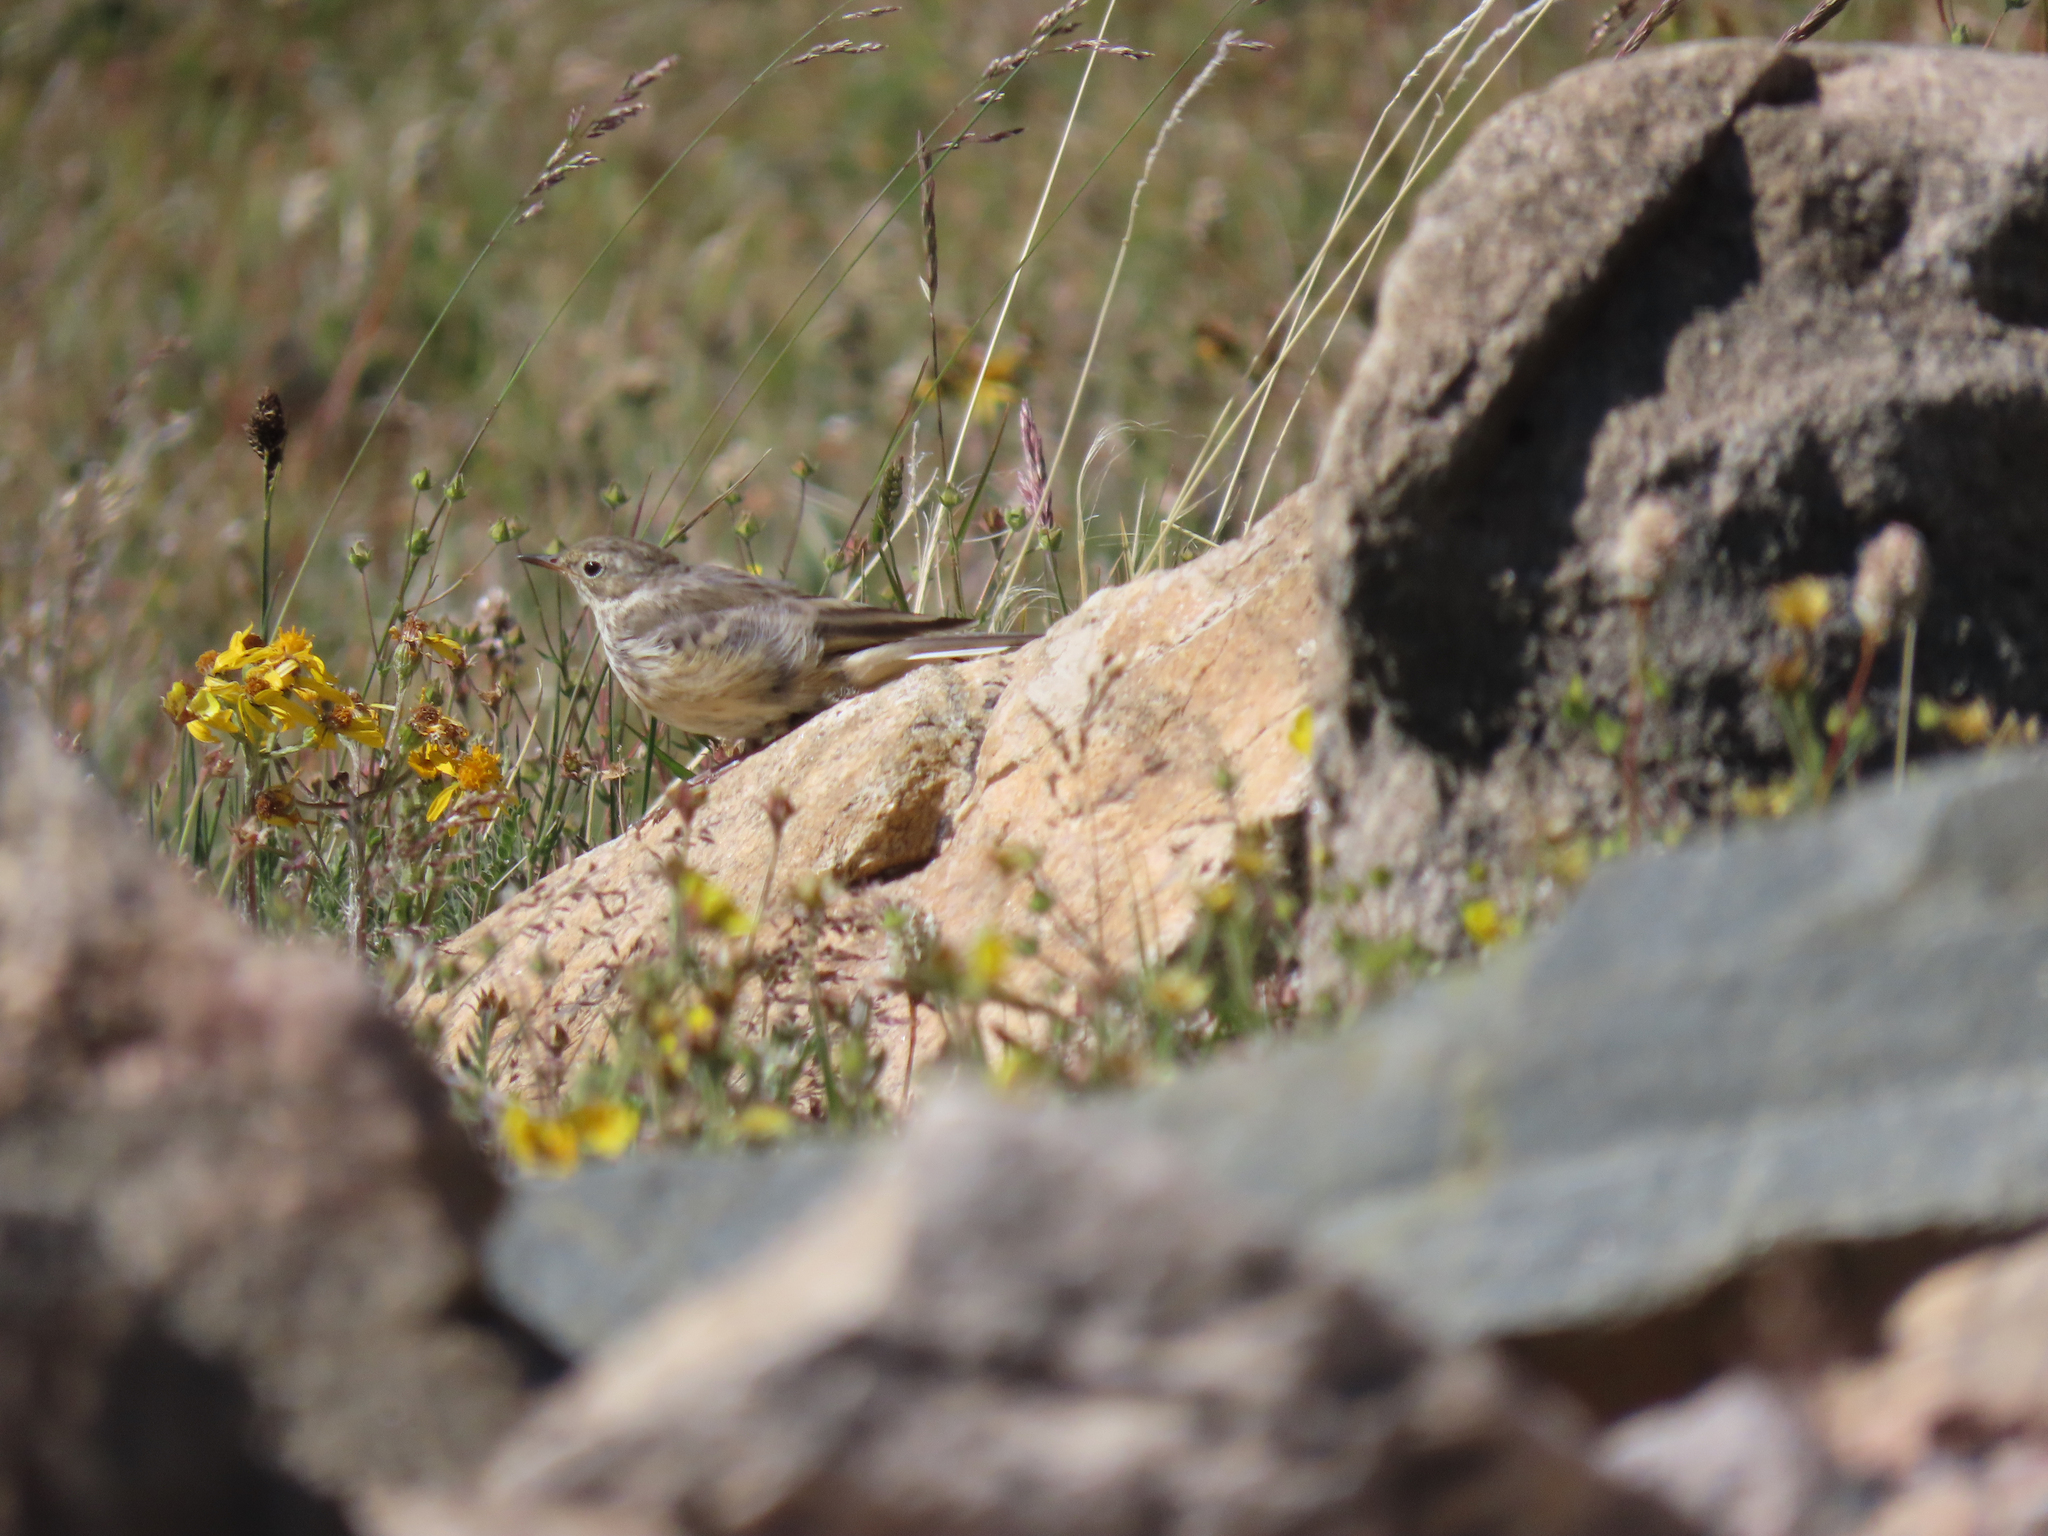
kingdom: Animalia
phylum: Chordata
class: Aves
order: Passeriformes
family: Motacillidae
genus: Anthus
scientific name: Anthus rubescens
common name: Buff-bellied pipit
